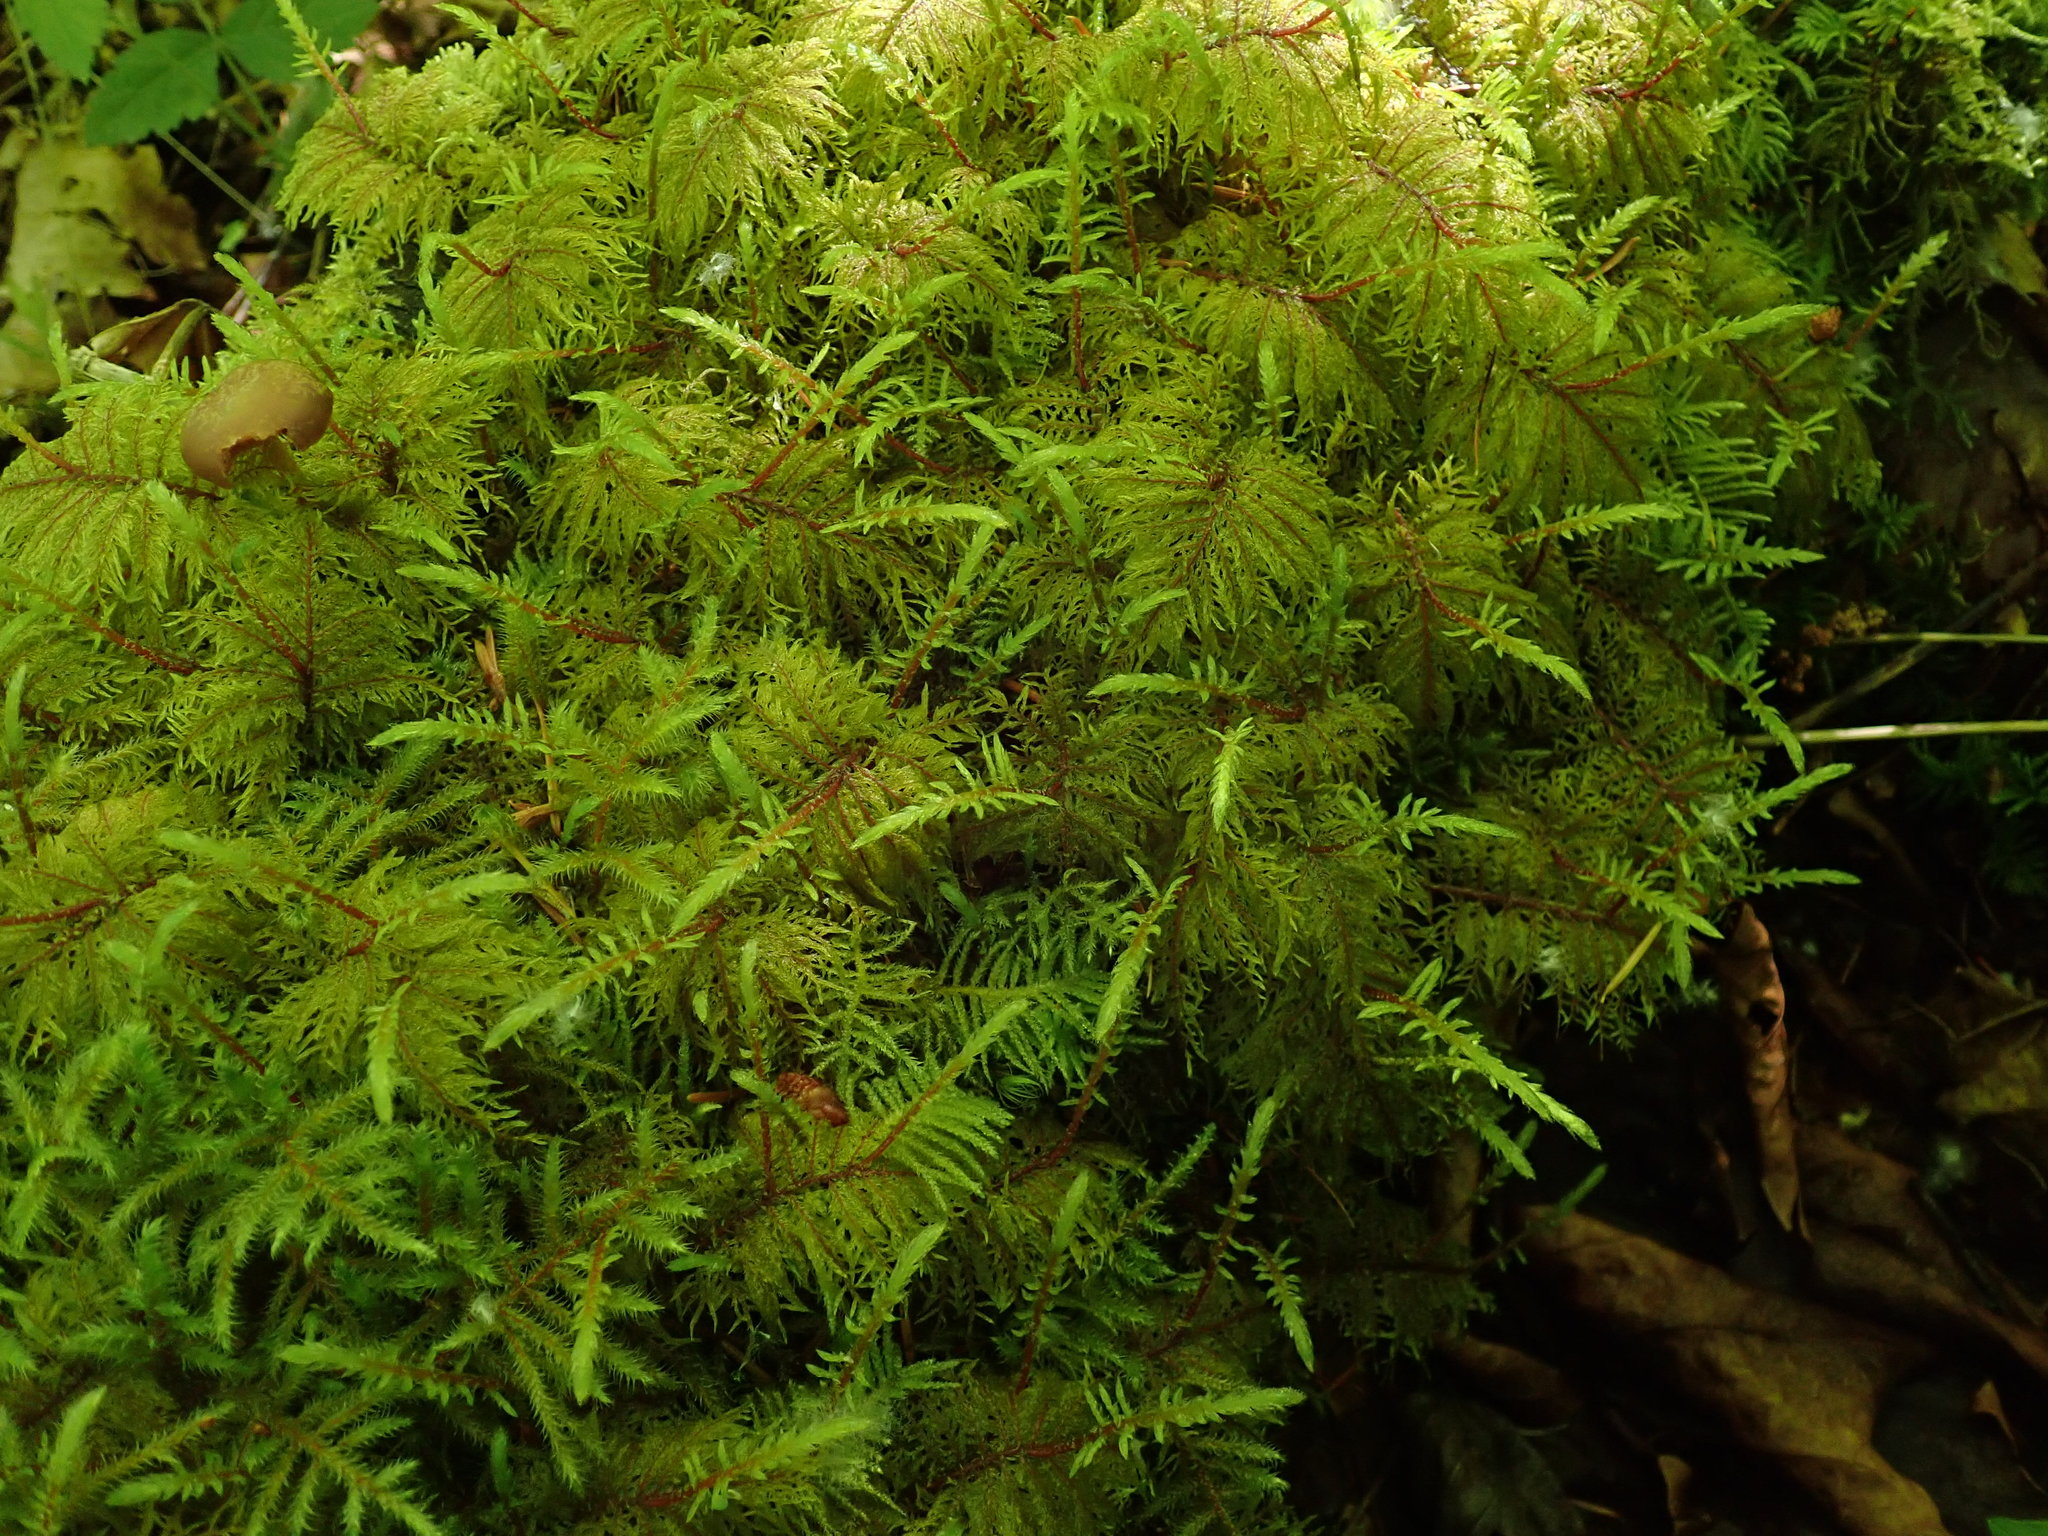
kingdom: Plantae
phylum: Bryophyta
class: Bryopsida
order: Hypnales
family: Hylocomiaceae
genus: Hylocomium
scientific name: Hylocomium splendens
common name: Stairstep moss
